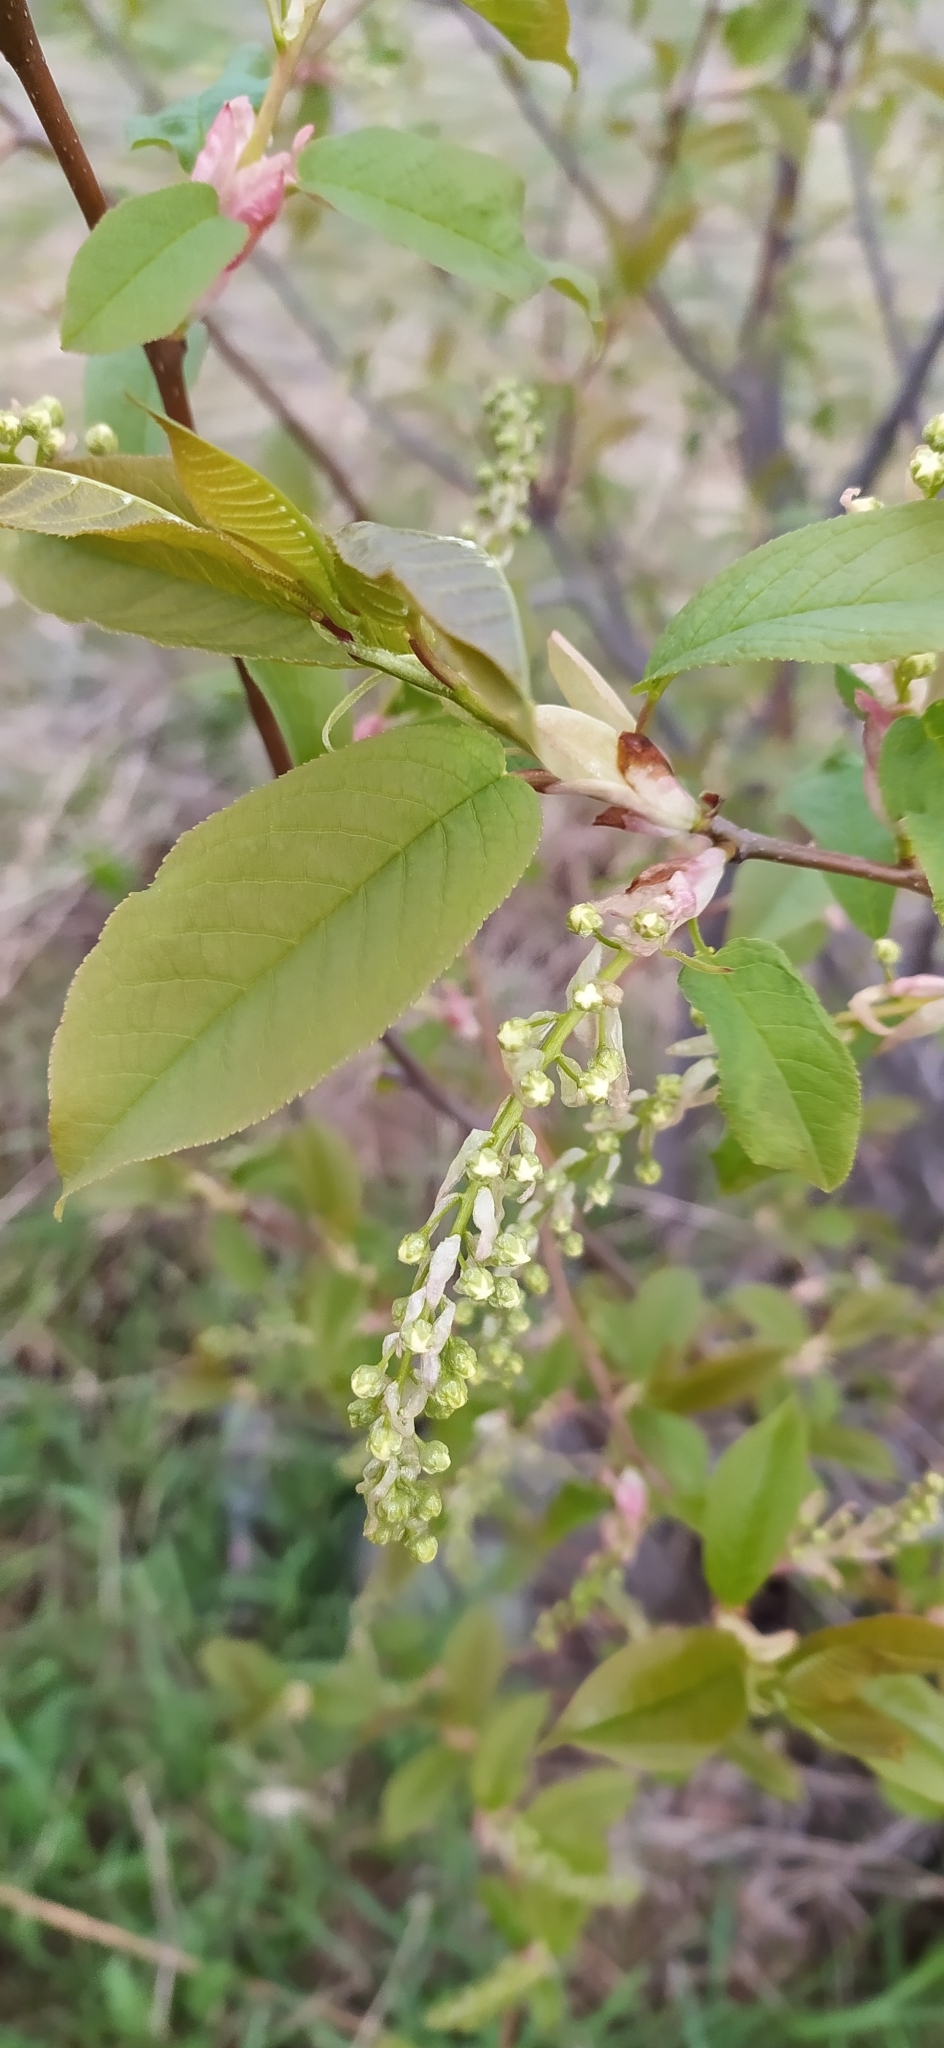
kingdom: Plantae
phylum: Tracheophyta
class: Magnoliopsida
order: Rosales
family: Rosaceae
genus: Prunus
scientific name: Prunus padus
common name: Bird cherry
